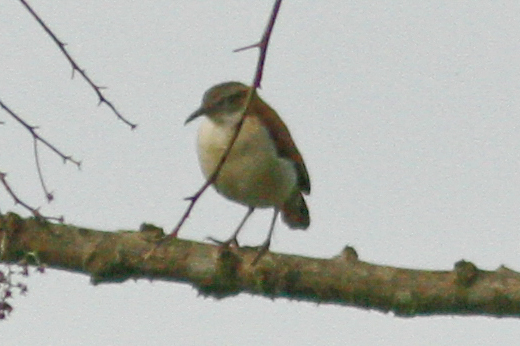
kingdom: Animalia
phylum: Chordata
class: Aves
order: Passeriformes
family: Furnariidae
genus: Furnarius
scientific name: Furnarius leucopus
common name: Pale-legged hornero
